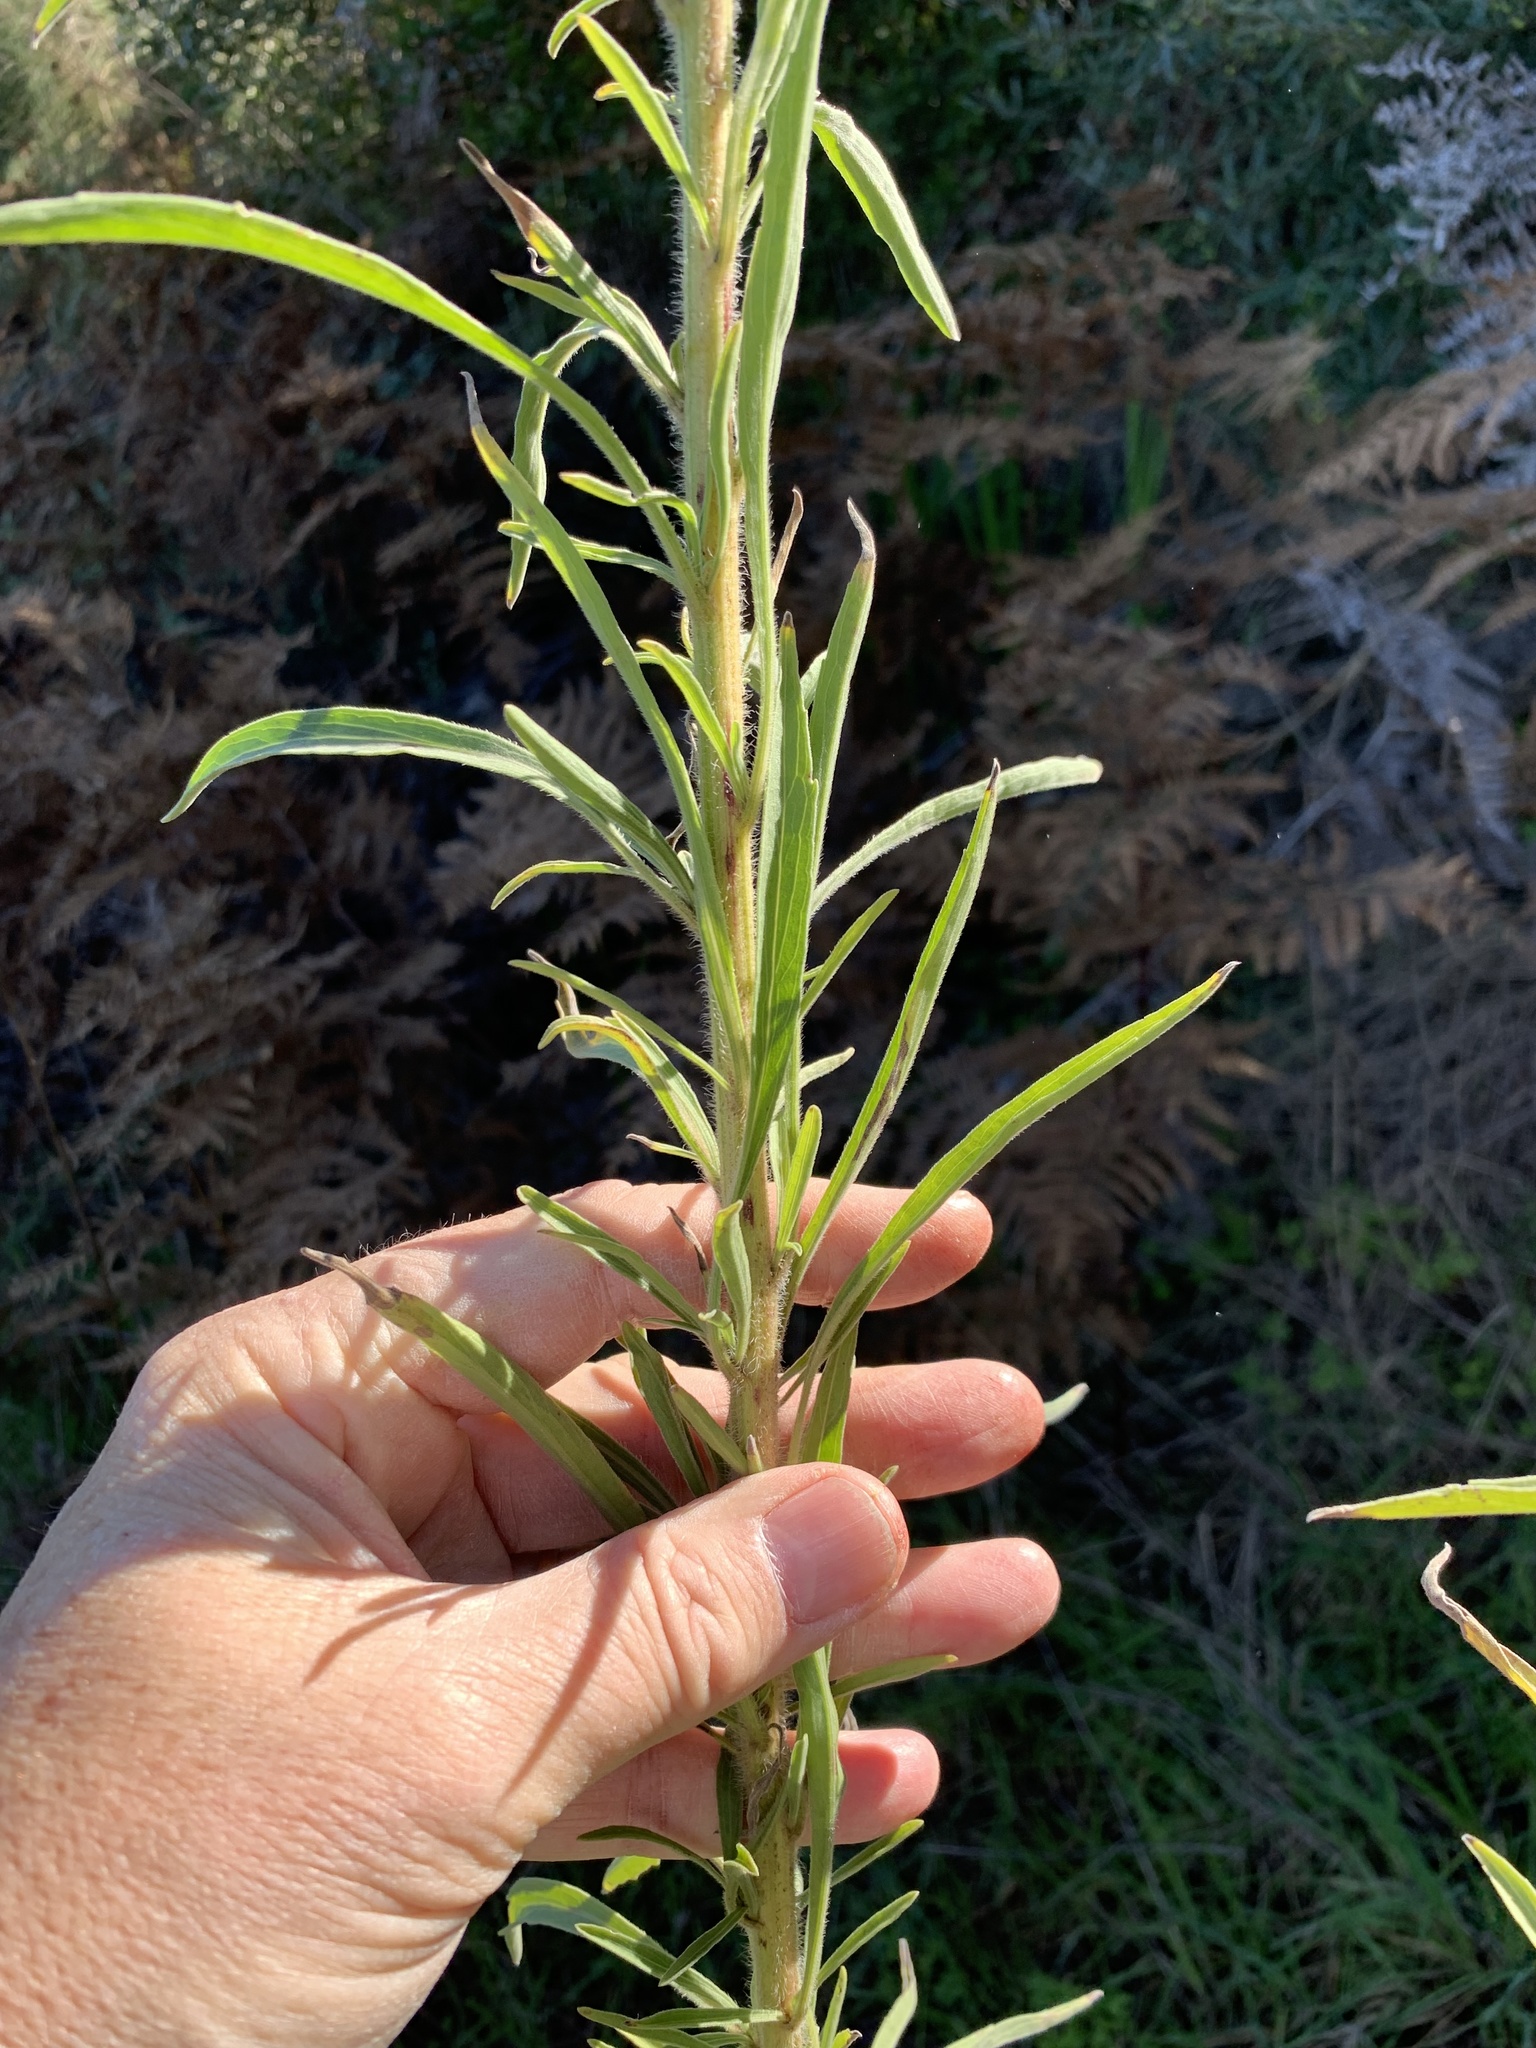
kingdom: Plantae
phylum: Tracheophyta
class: Magnoliopsida
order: Asterales
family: Asteraceae
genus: Erigeron
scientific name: Erigeron sumatrensis
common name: Daisy
